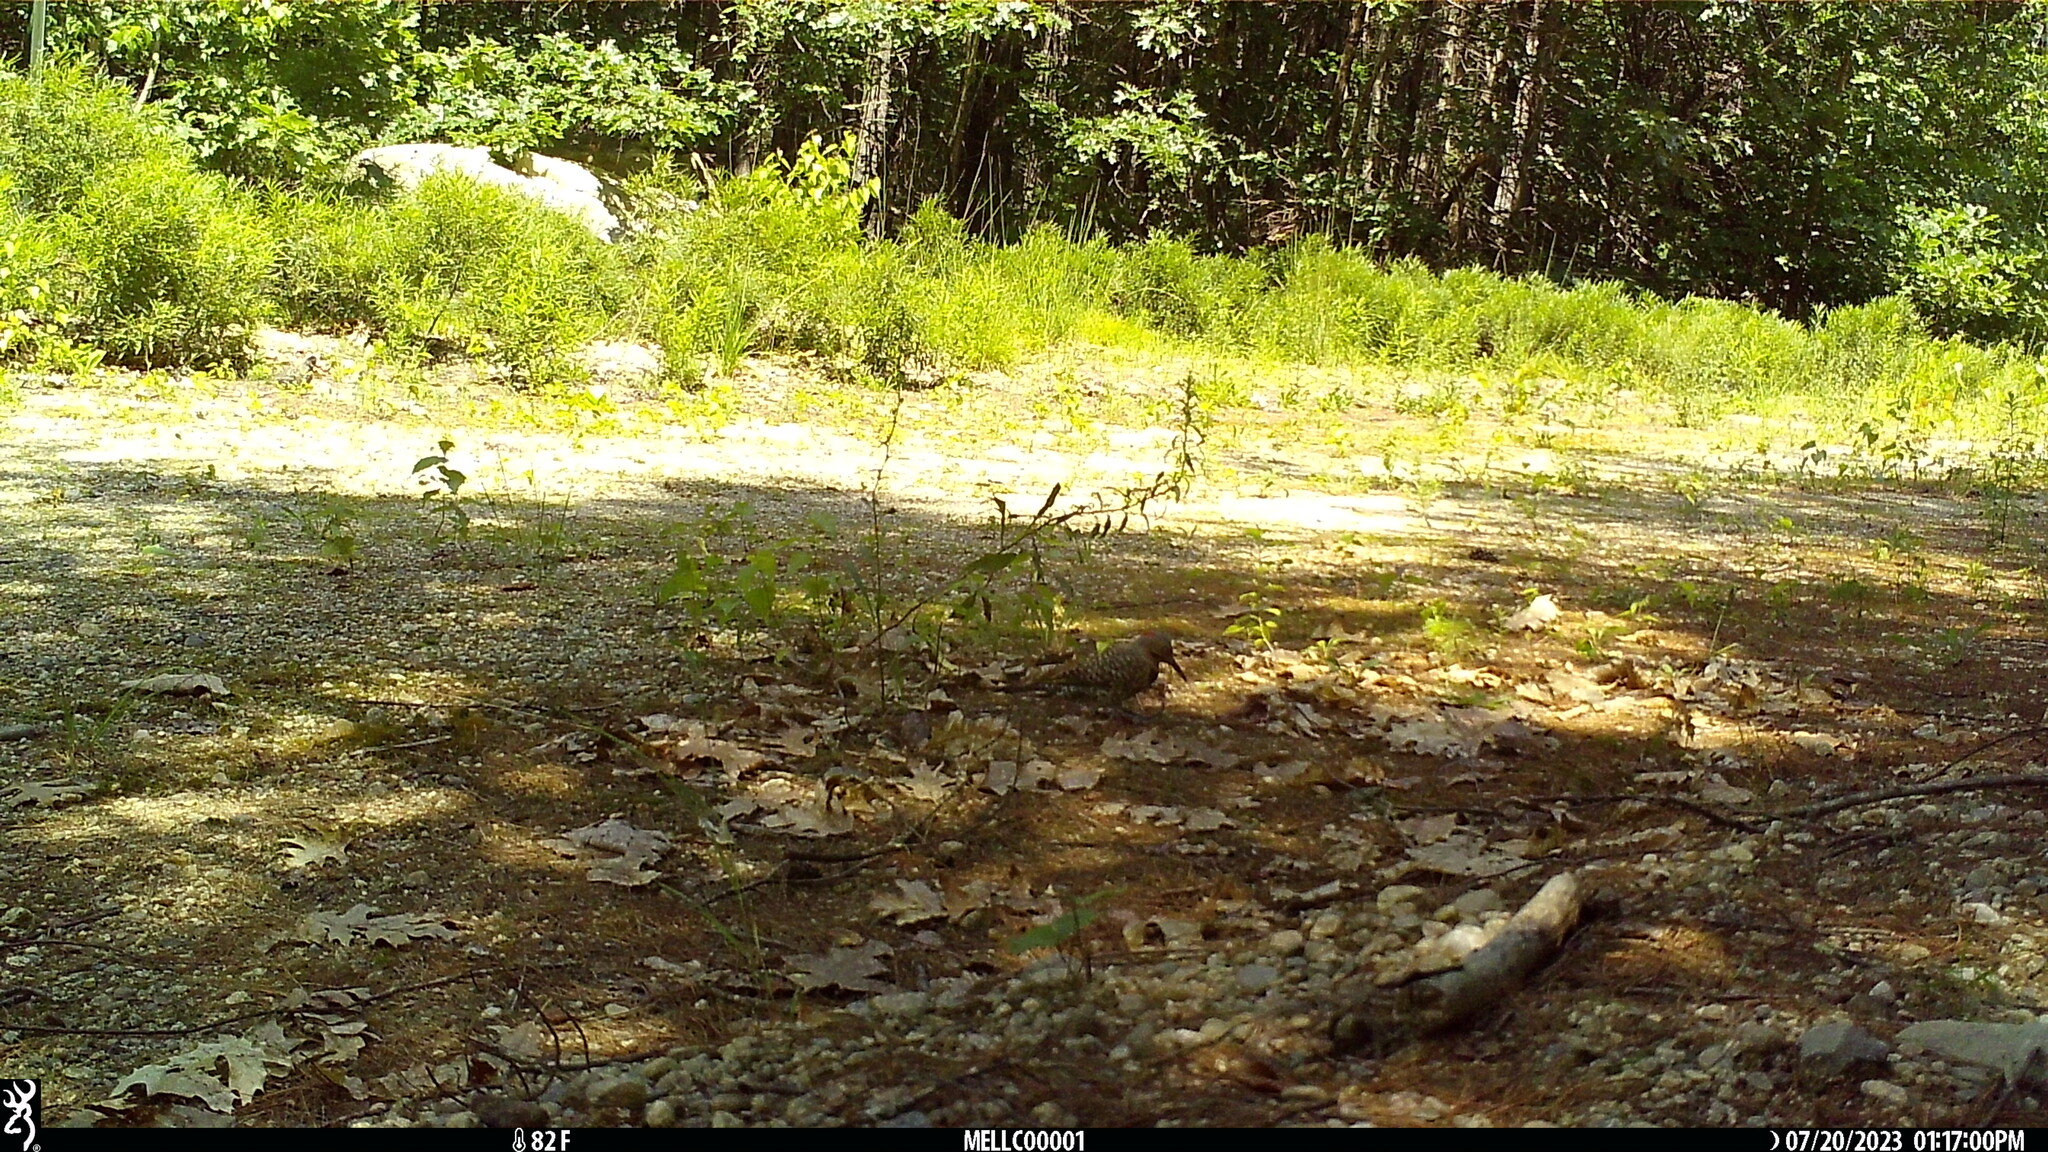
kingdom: Animalia
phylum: Chordata
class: Aves
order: Piciformes
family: Picidae
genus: Colaptes
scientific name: Colaptes auratus
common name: Northern flicker
